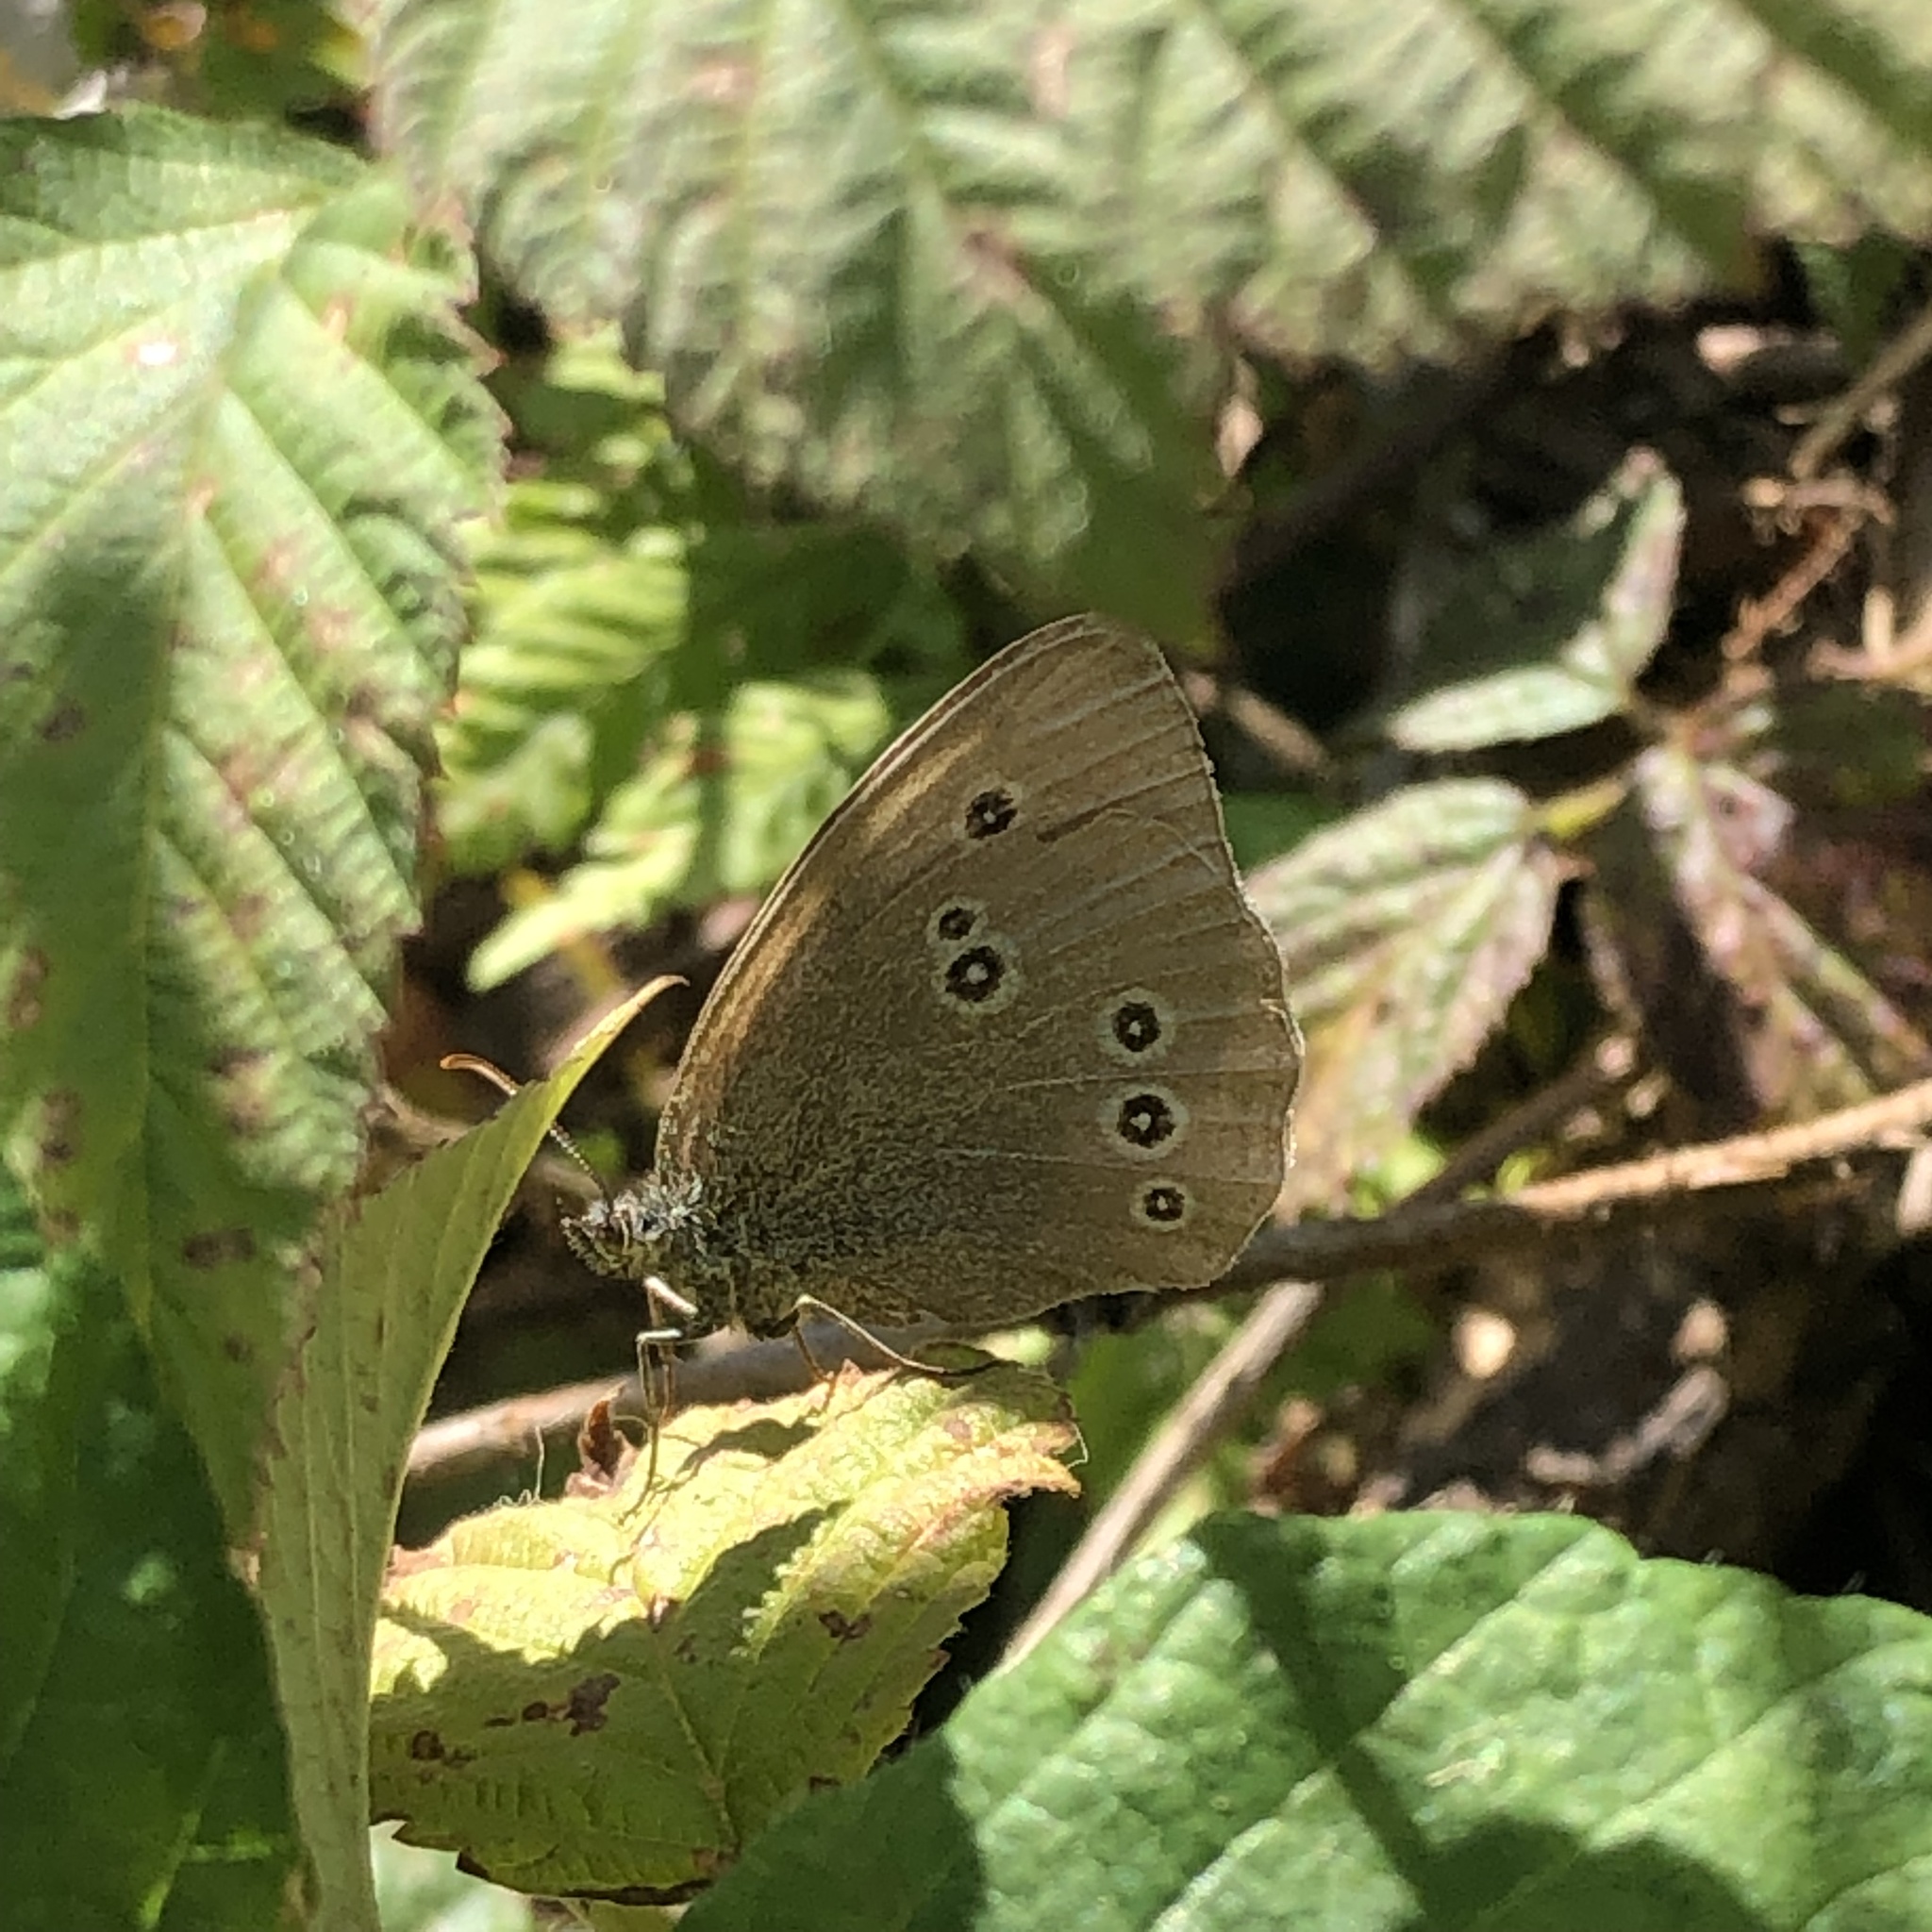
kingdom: Animalia
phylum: Arthropoda
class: Insecta
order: Lepidoptera
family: Nymphalidae
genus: Aphantopus
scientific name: Aphantopus hyperantus
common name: Ringlet
